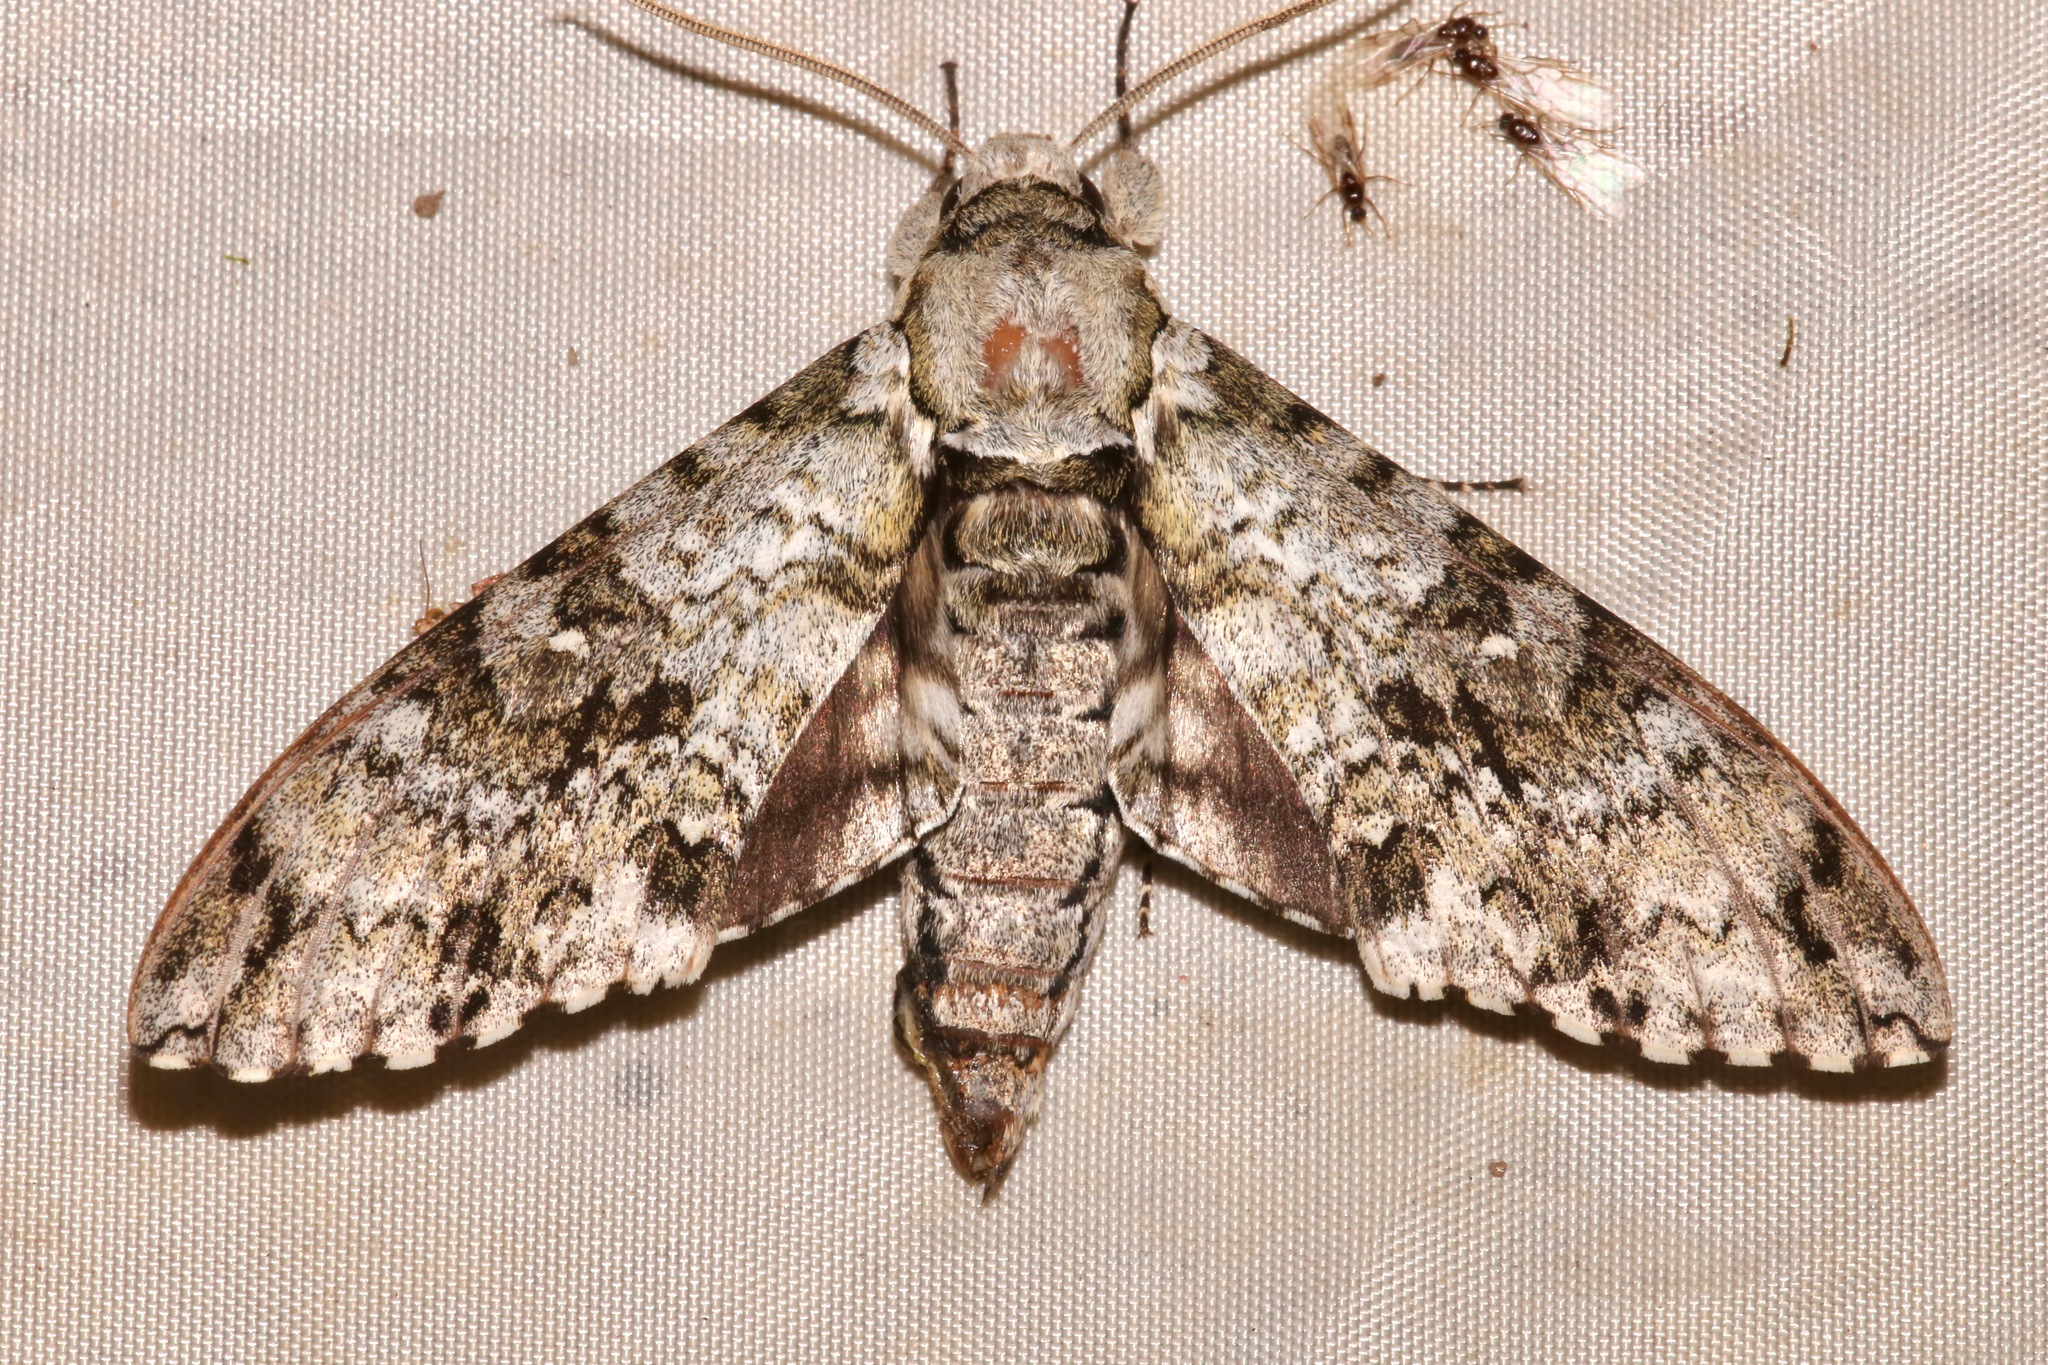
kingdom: Animalia
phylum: Arthropoda
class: Insecta
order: Lepidoptera
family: Sphingidae
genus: Manduca
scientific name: Manduca florestan
